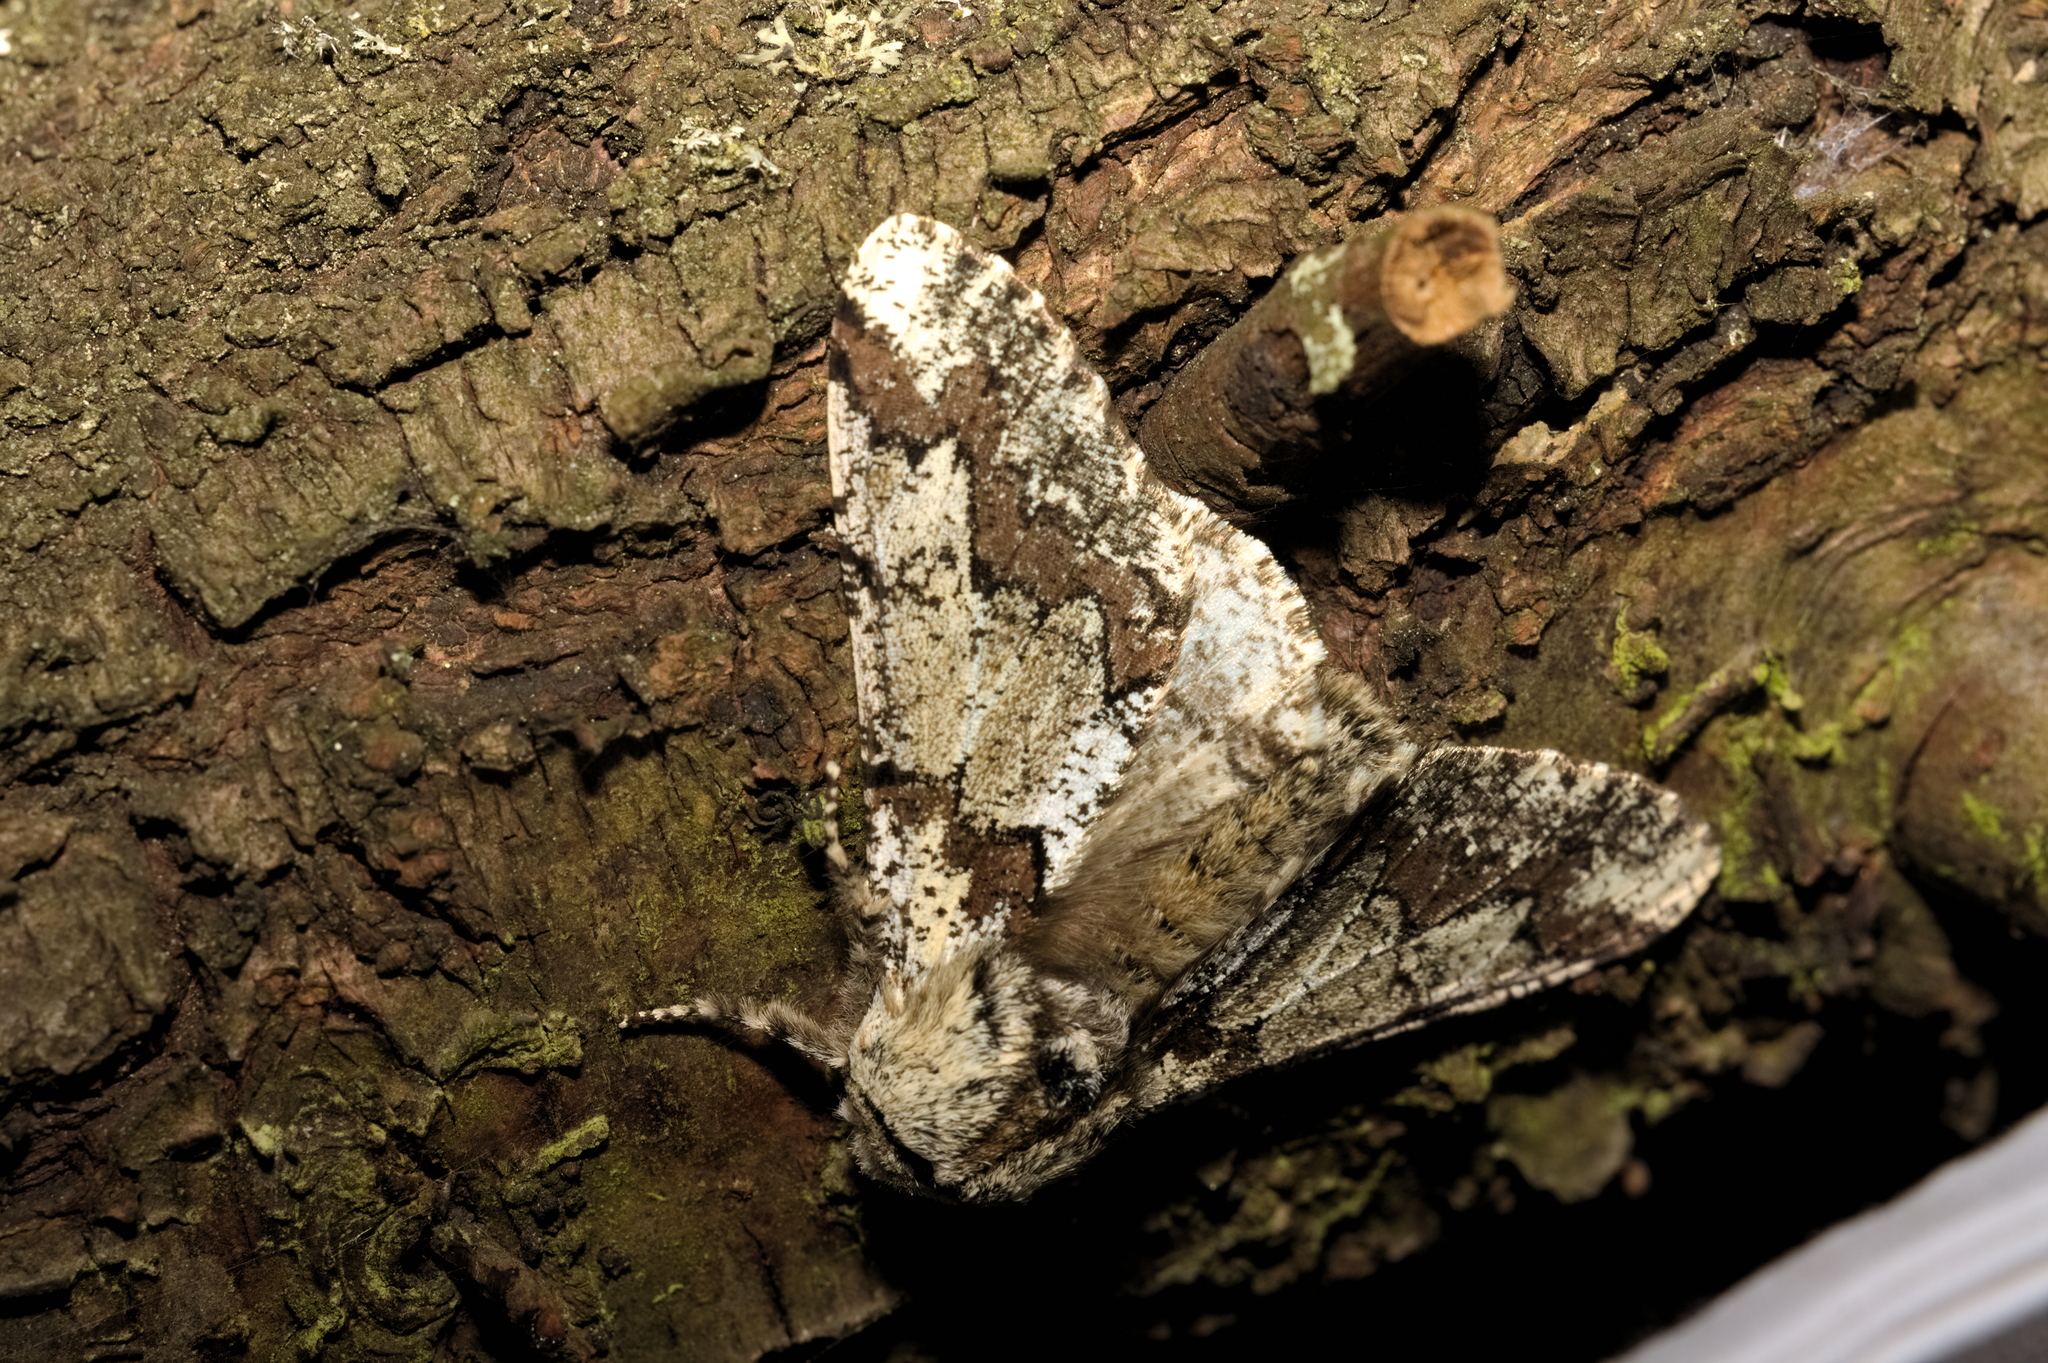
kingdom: Animalia
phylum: Arthropoda
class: Insecta
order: Lepidoptera
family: Geometridae
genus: Biston
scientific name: Biston strataria
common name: Oak beauty
